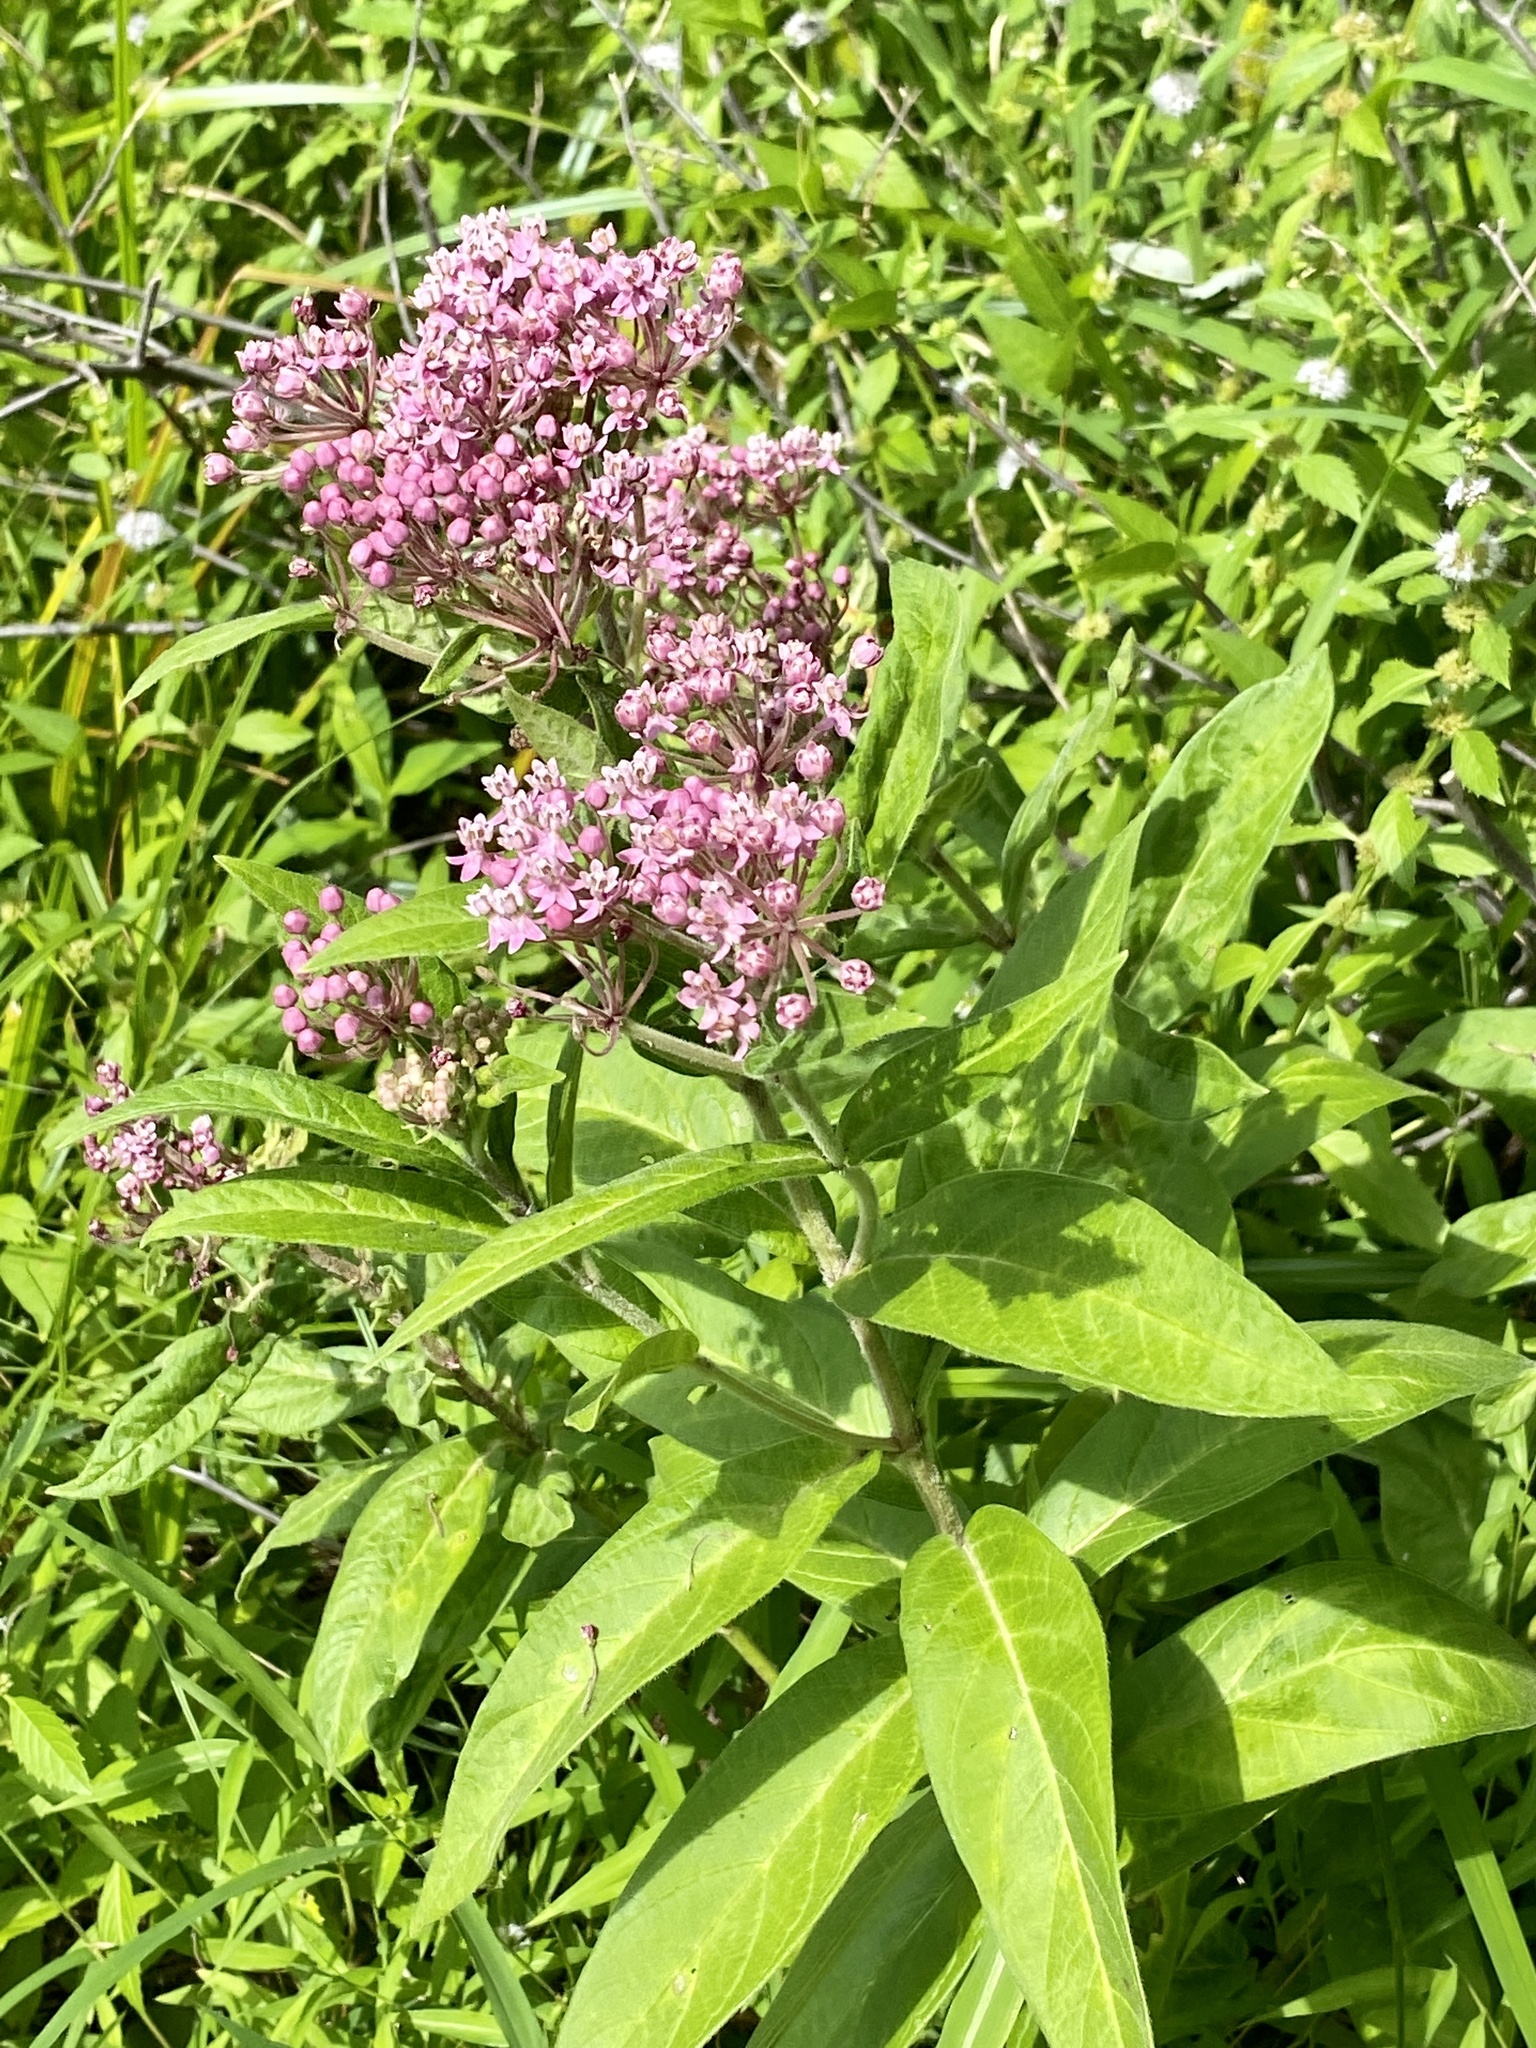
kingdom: Plantae
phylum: Tracheophyta
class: Magnoliopsida
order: Gentianales
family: Apocynaceae
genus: Asclepias
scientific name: Asclepias incarnata
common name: Swamp milkweed
